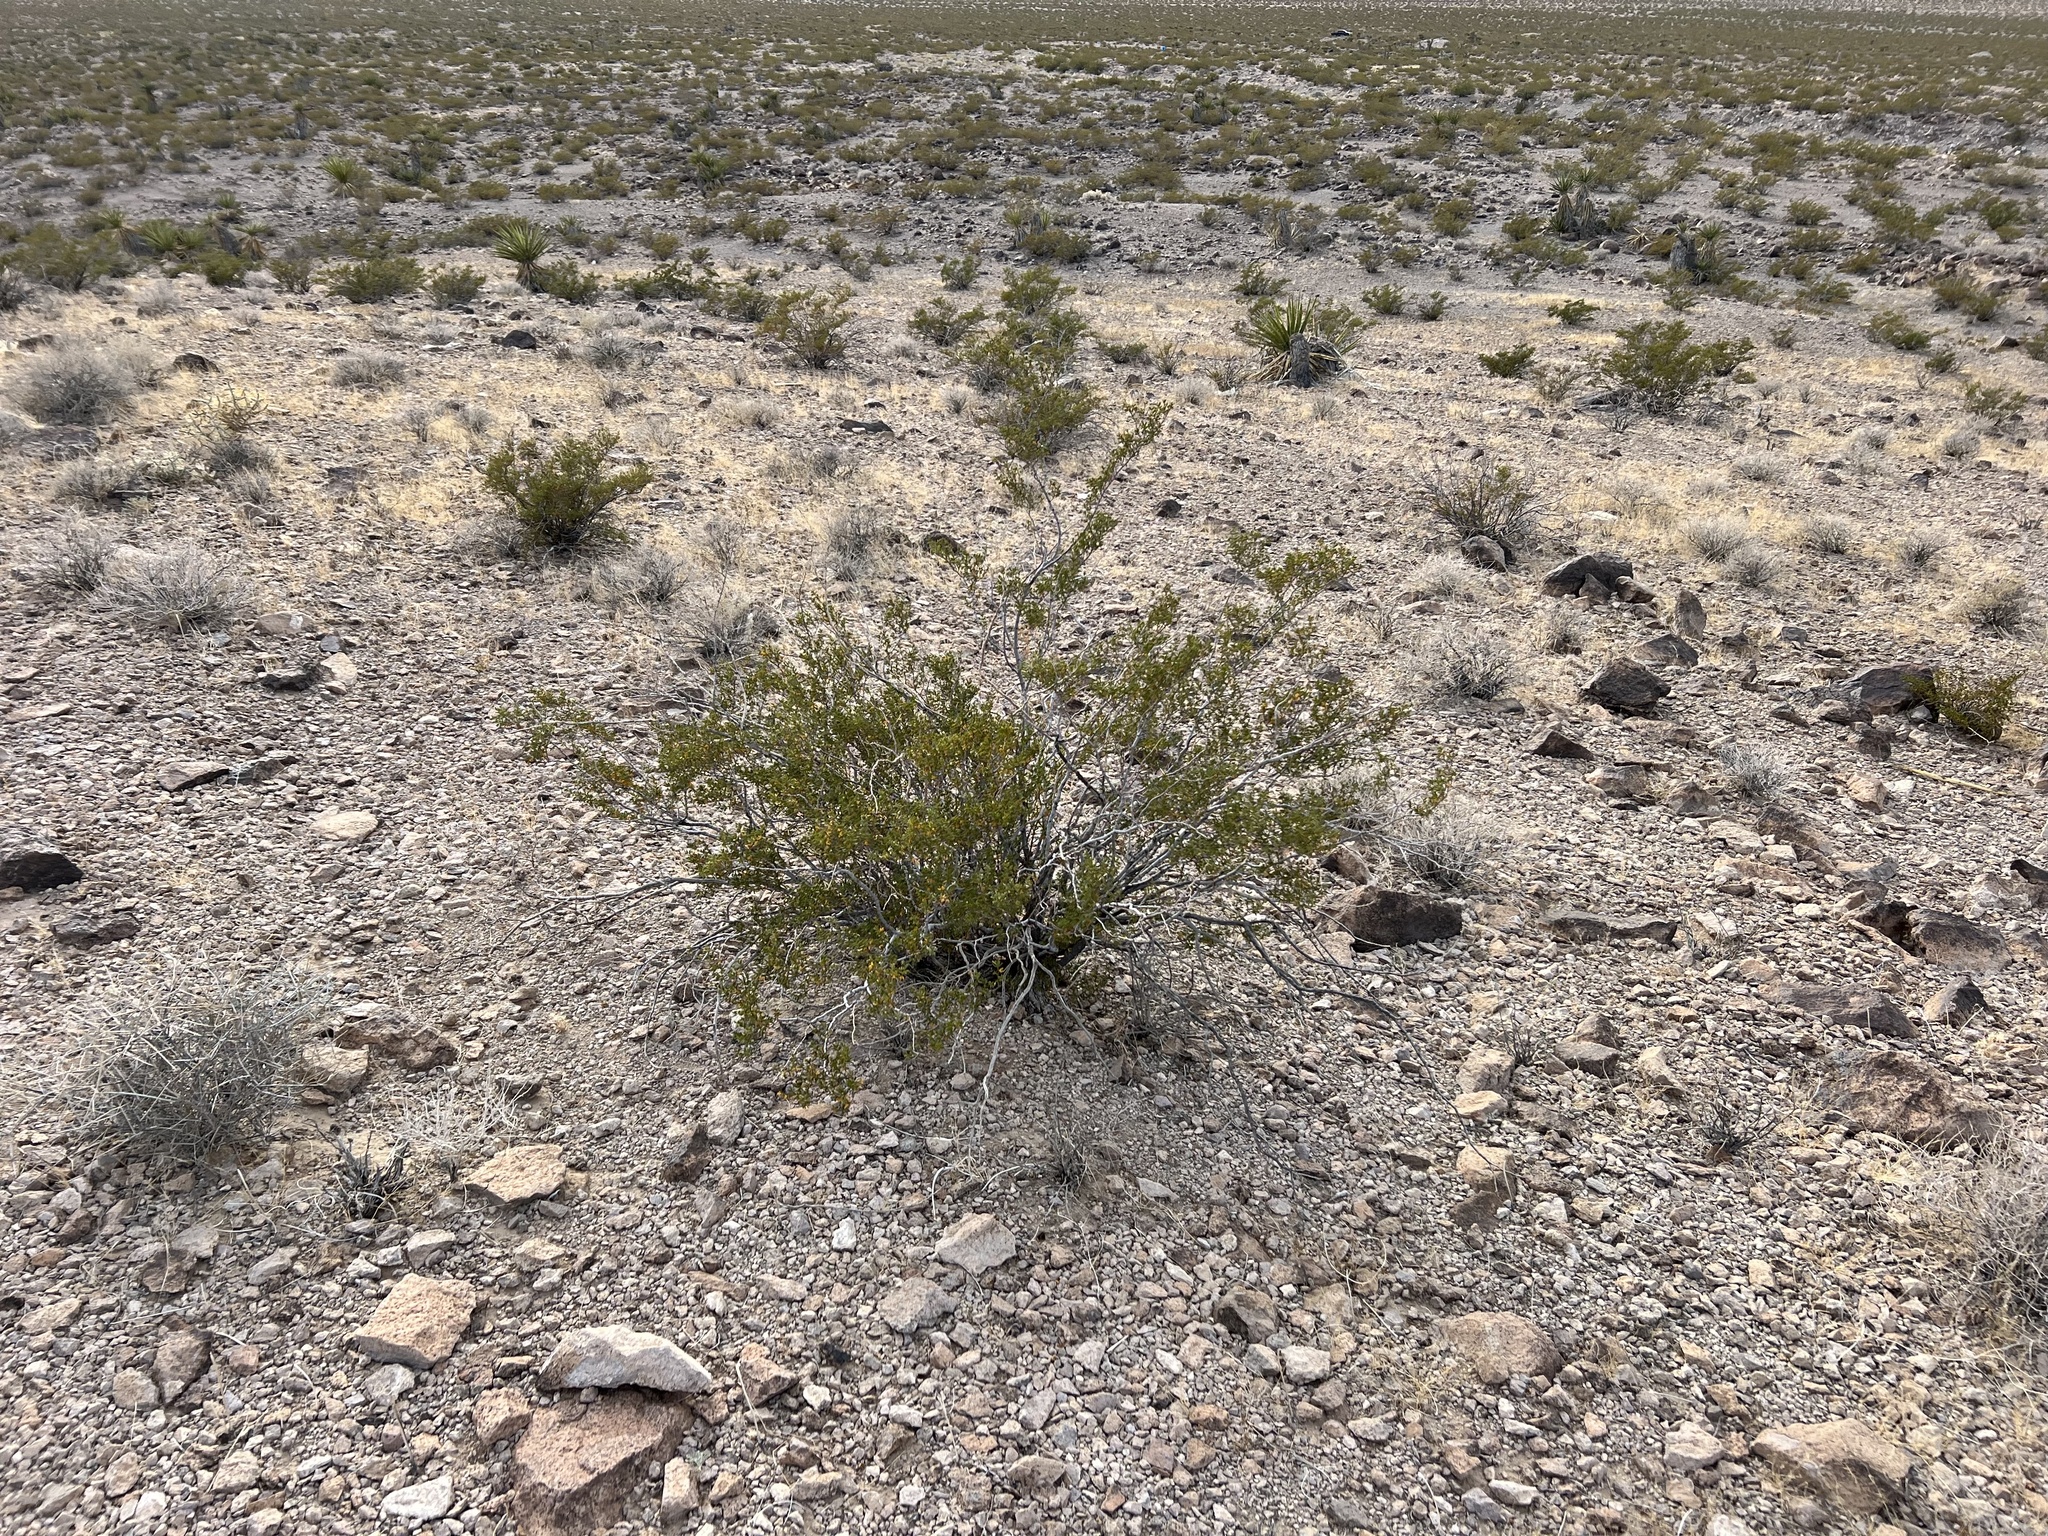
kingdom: Plantae
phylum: Tracheophyta
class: Magnoliopsida
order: Zygophyllales
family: Zygophyllaceae
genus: Larrea
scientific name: Larrea tridentata
